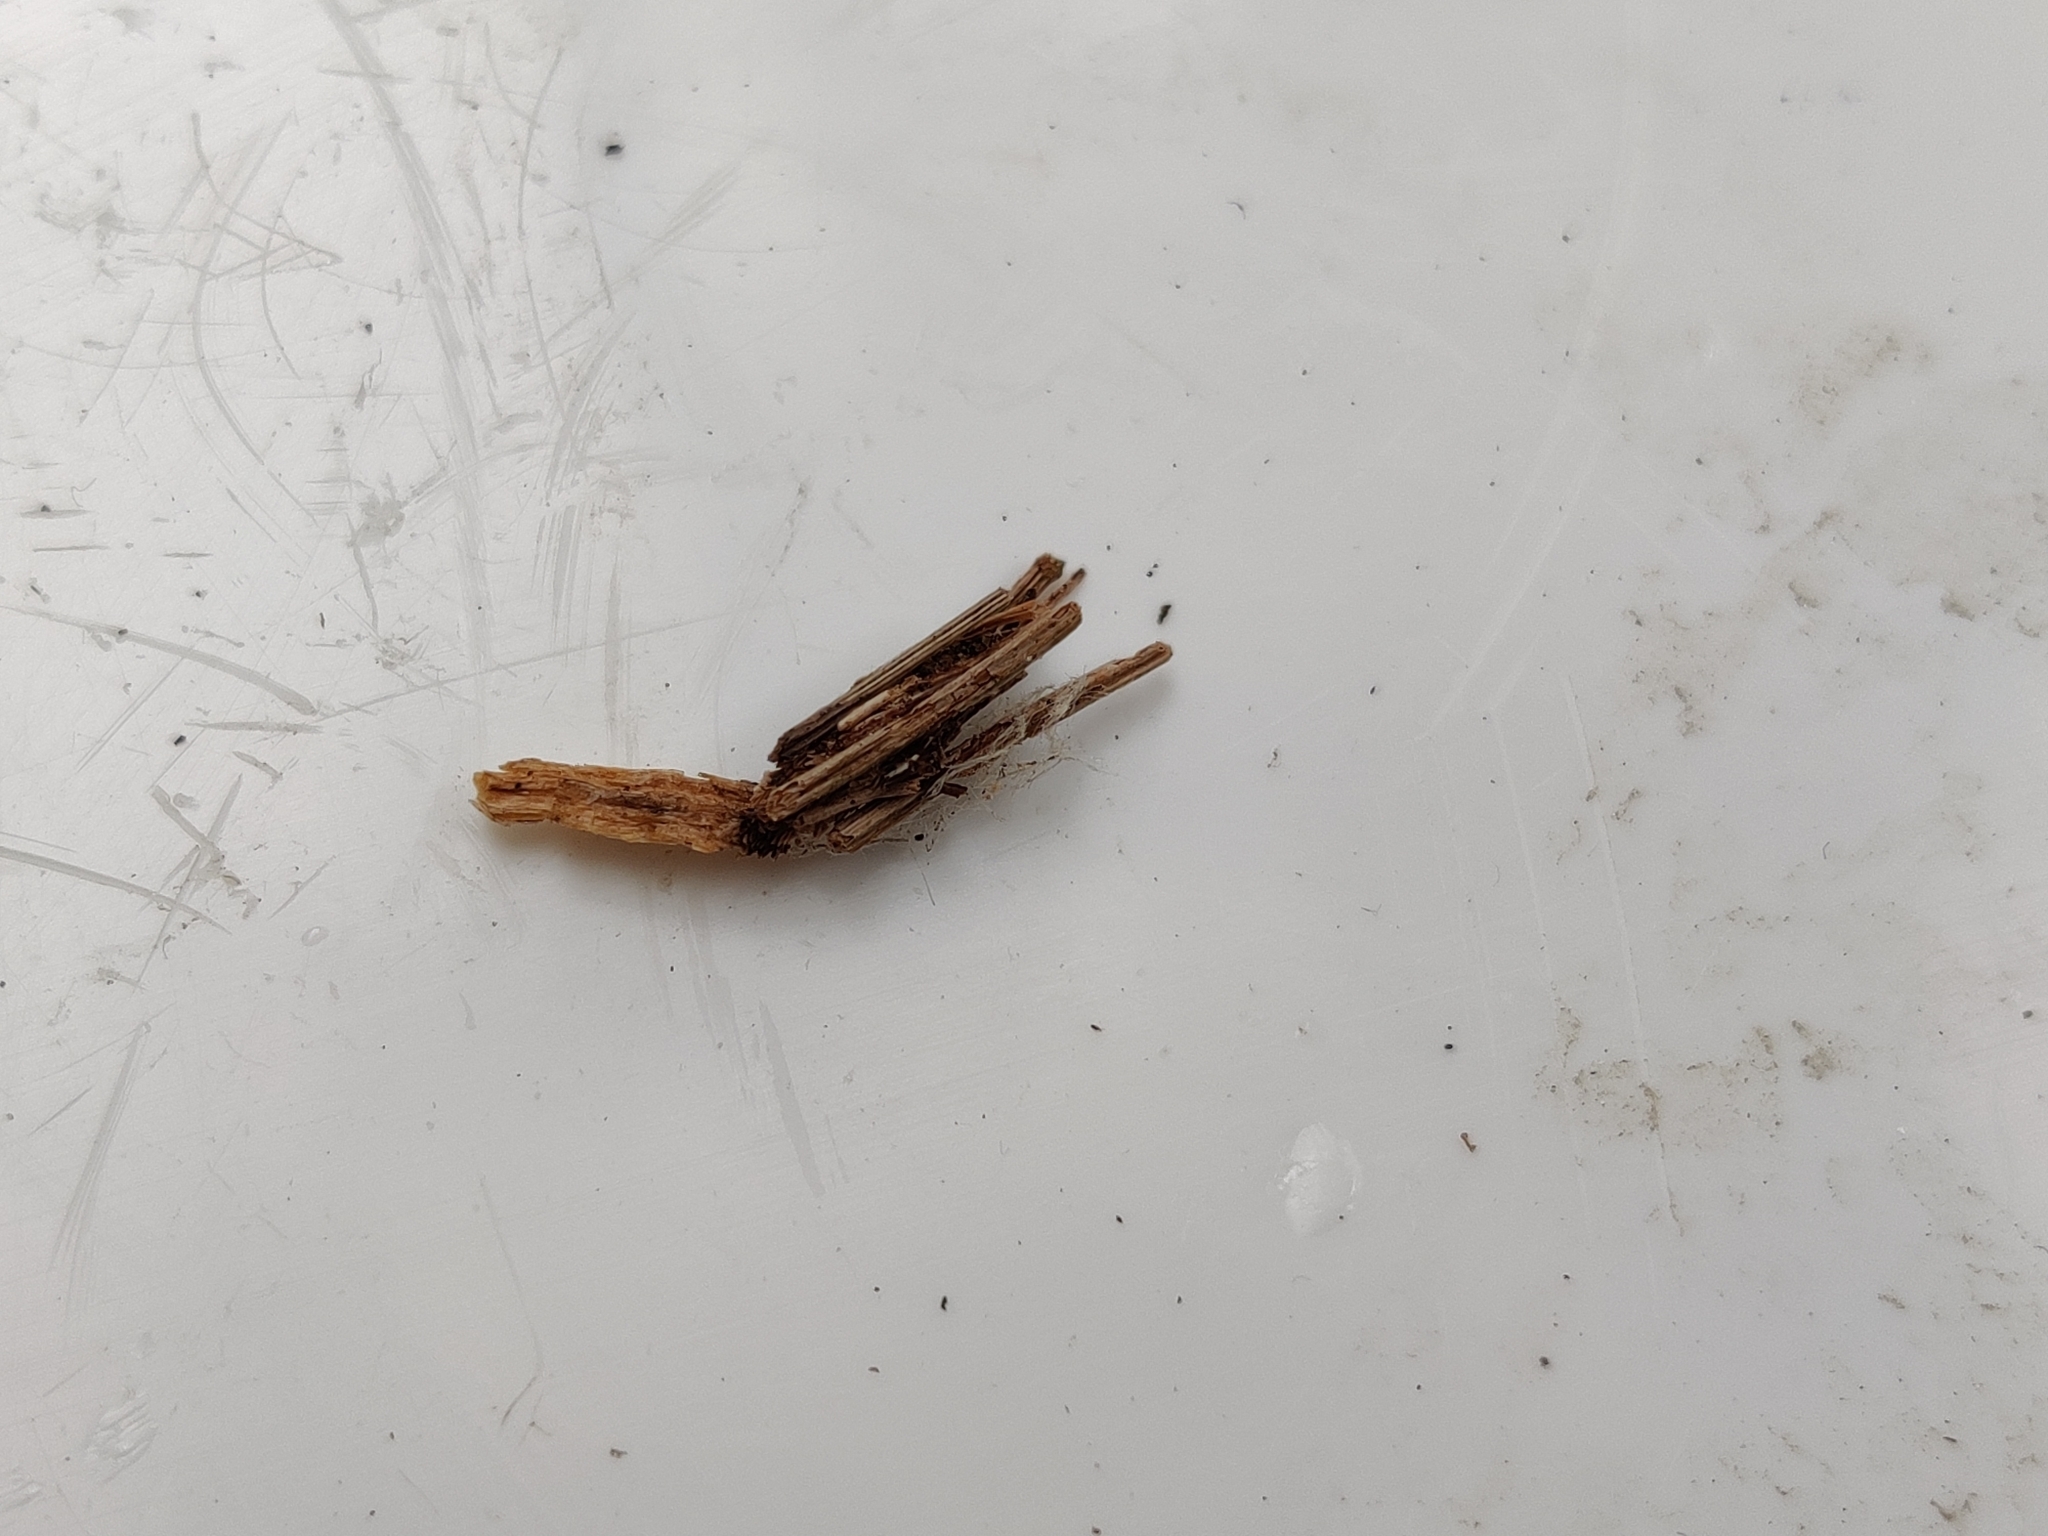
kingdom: Animalia
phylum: Arthropoda
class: Insecta
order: Lepidoptera
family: Psychidae
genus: Psyche
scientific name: Psyche casta
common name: Common sweep
